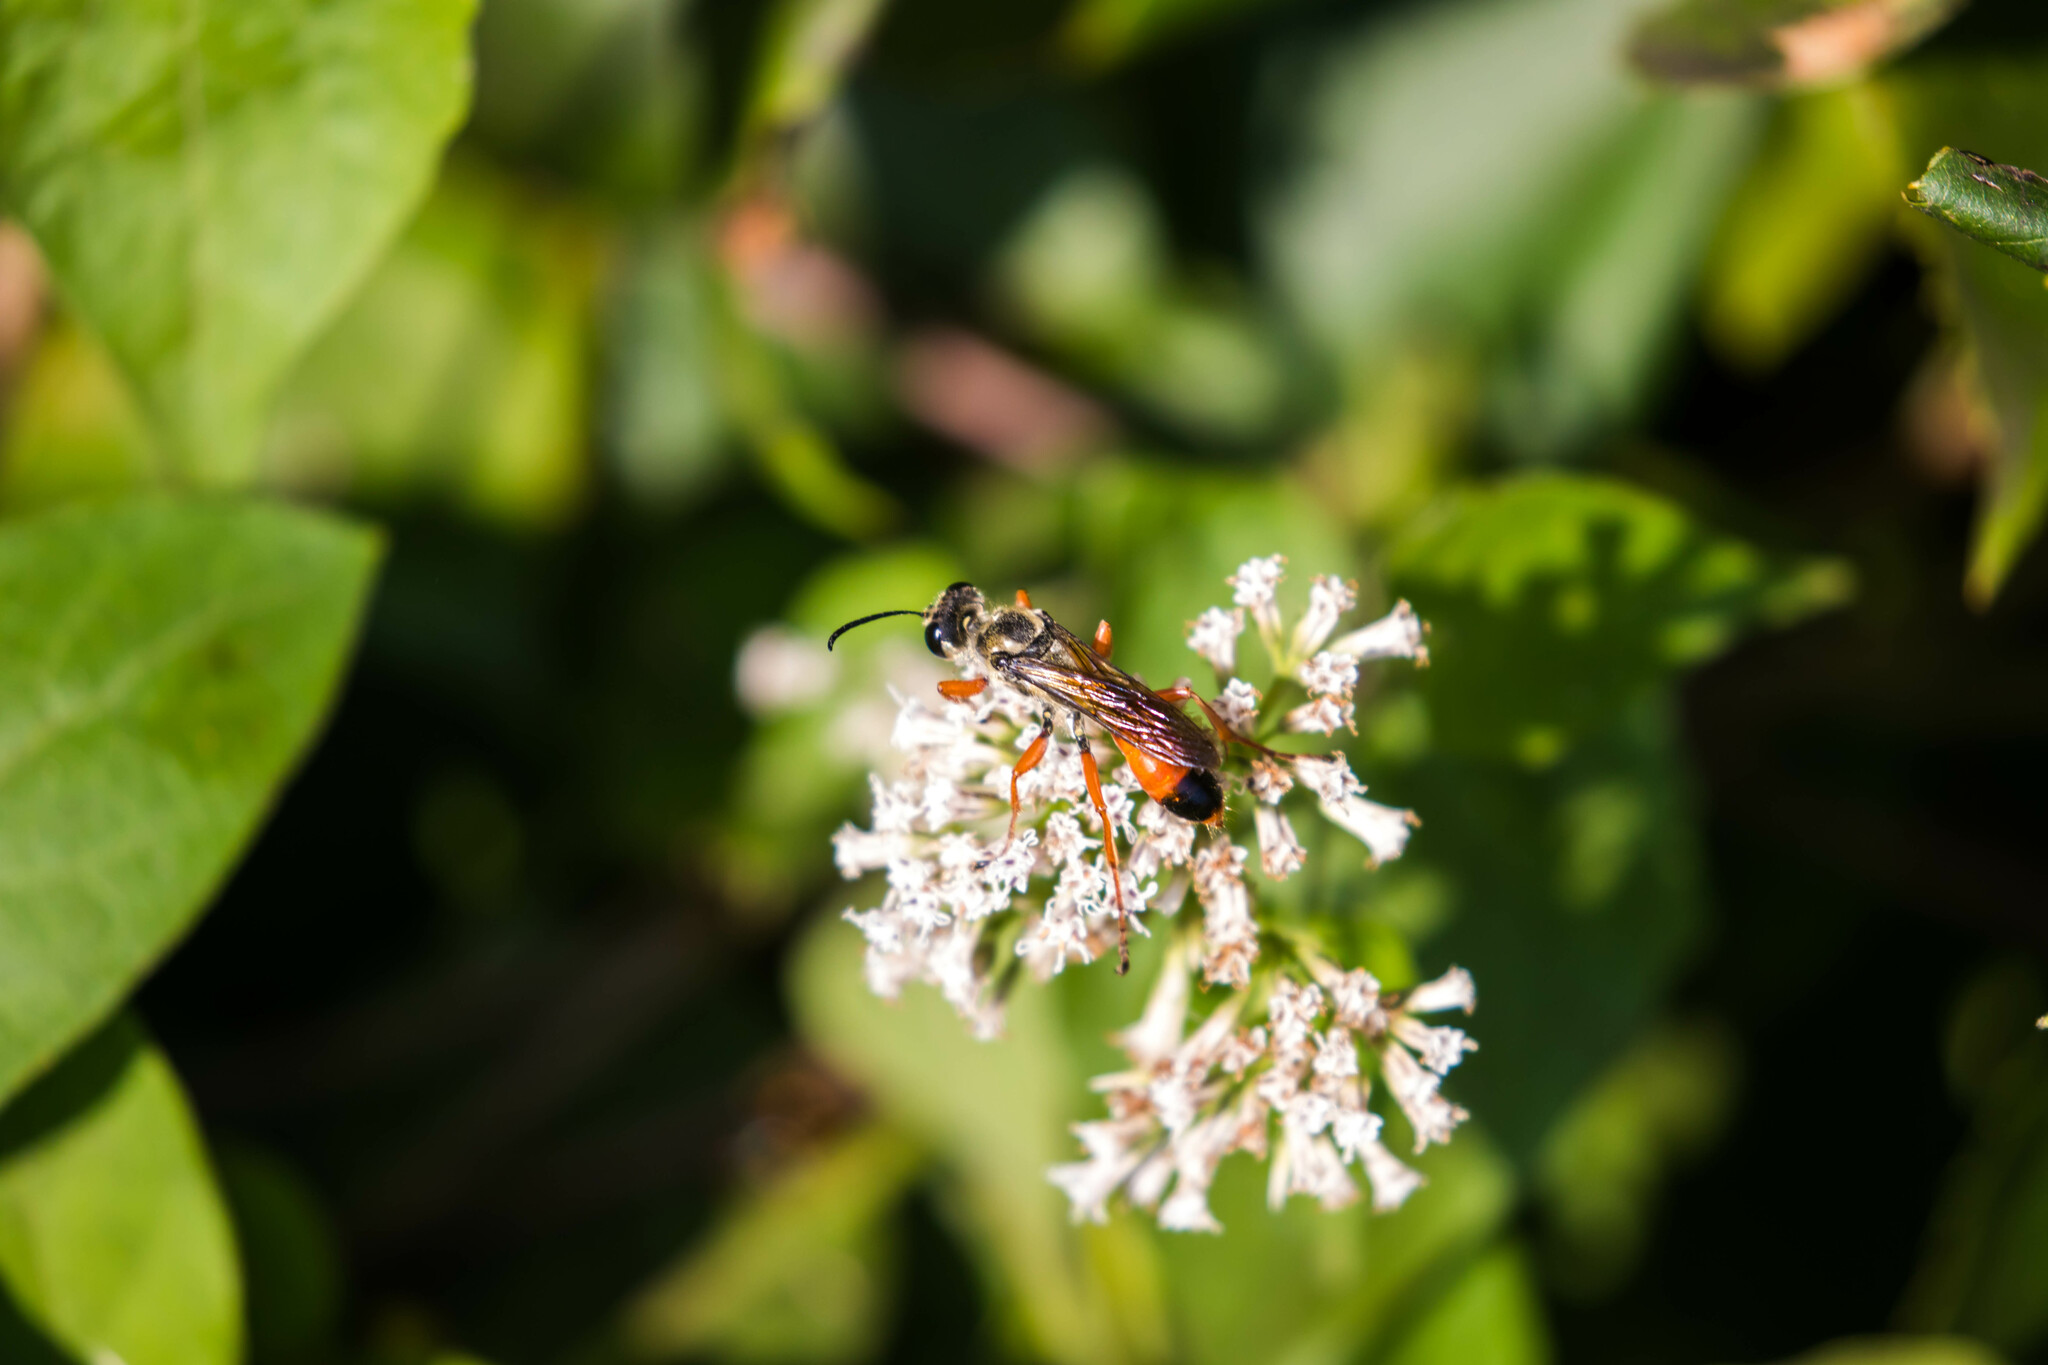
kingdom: Animalia
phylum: Arthropoda
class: Insecta
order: Hymenoptera
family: Sphecidae
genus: Sphex
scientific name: Sphex dorsalis
